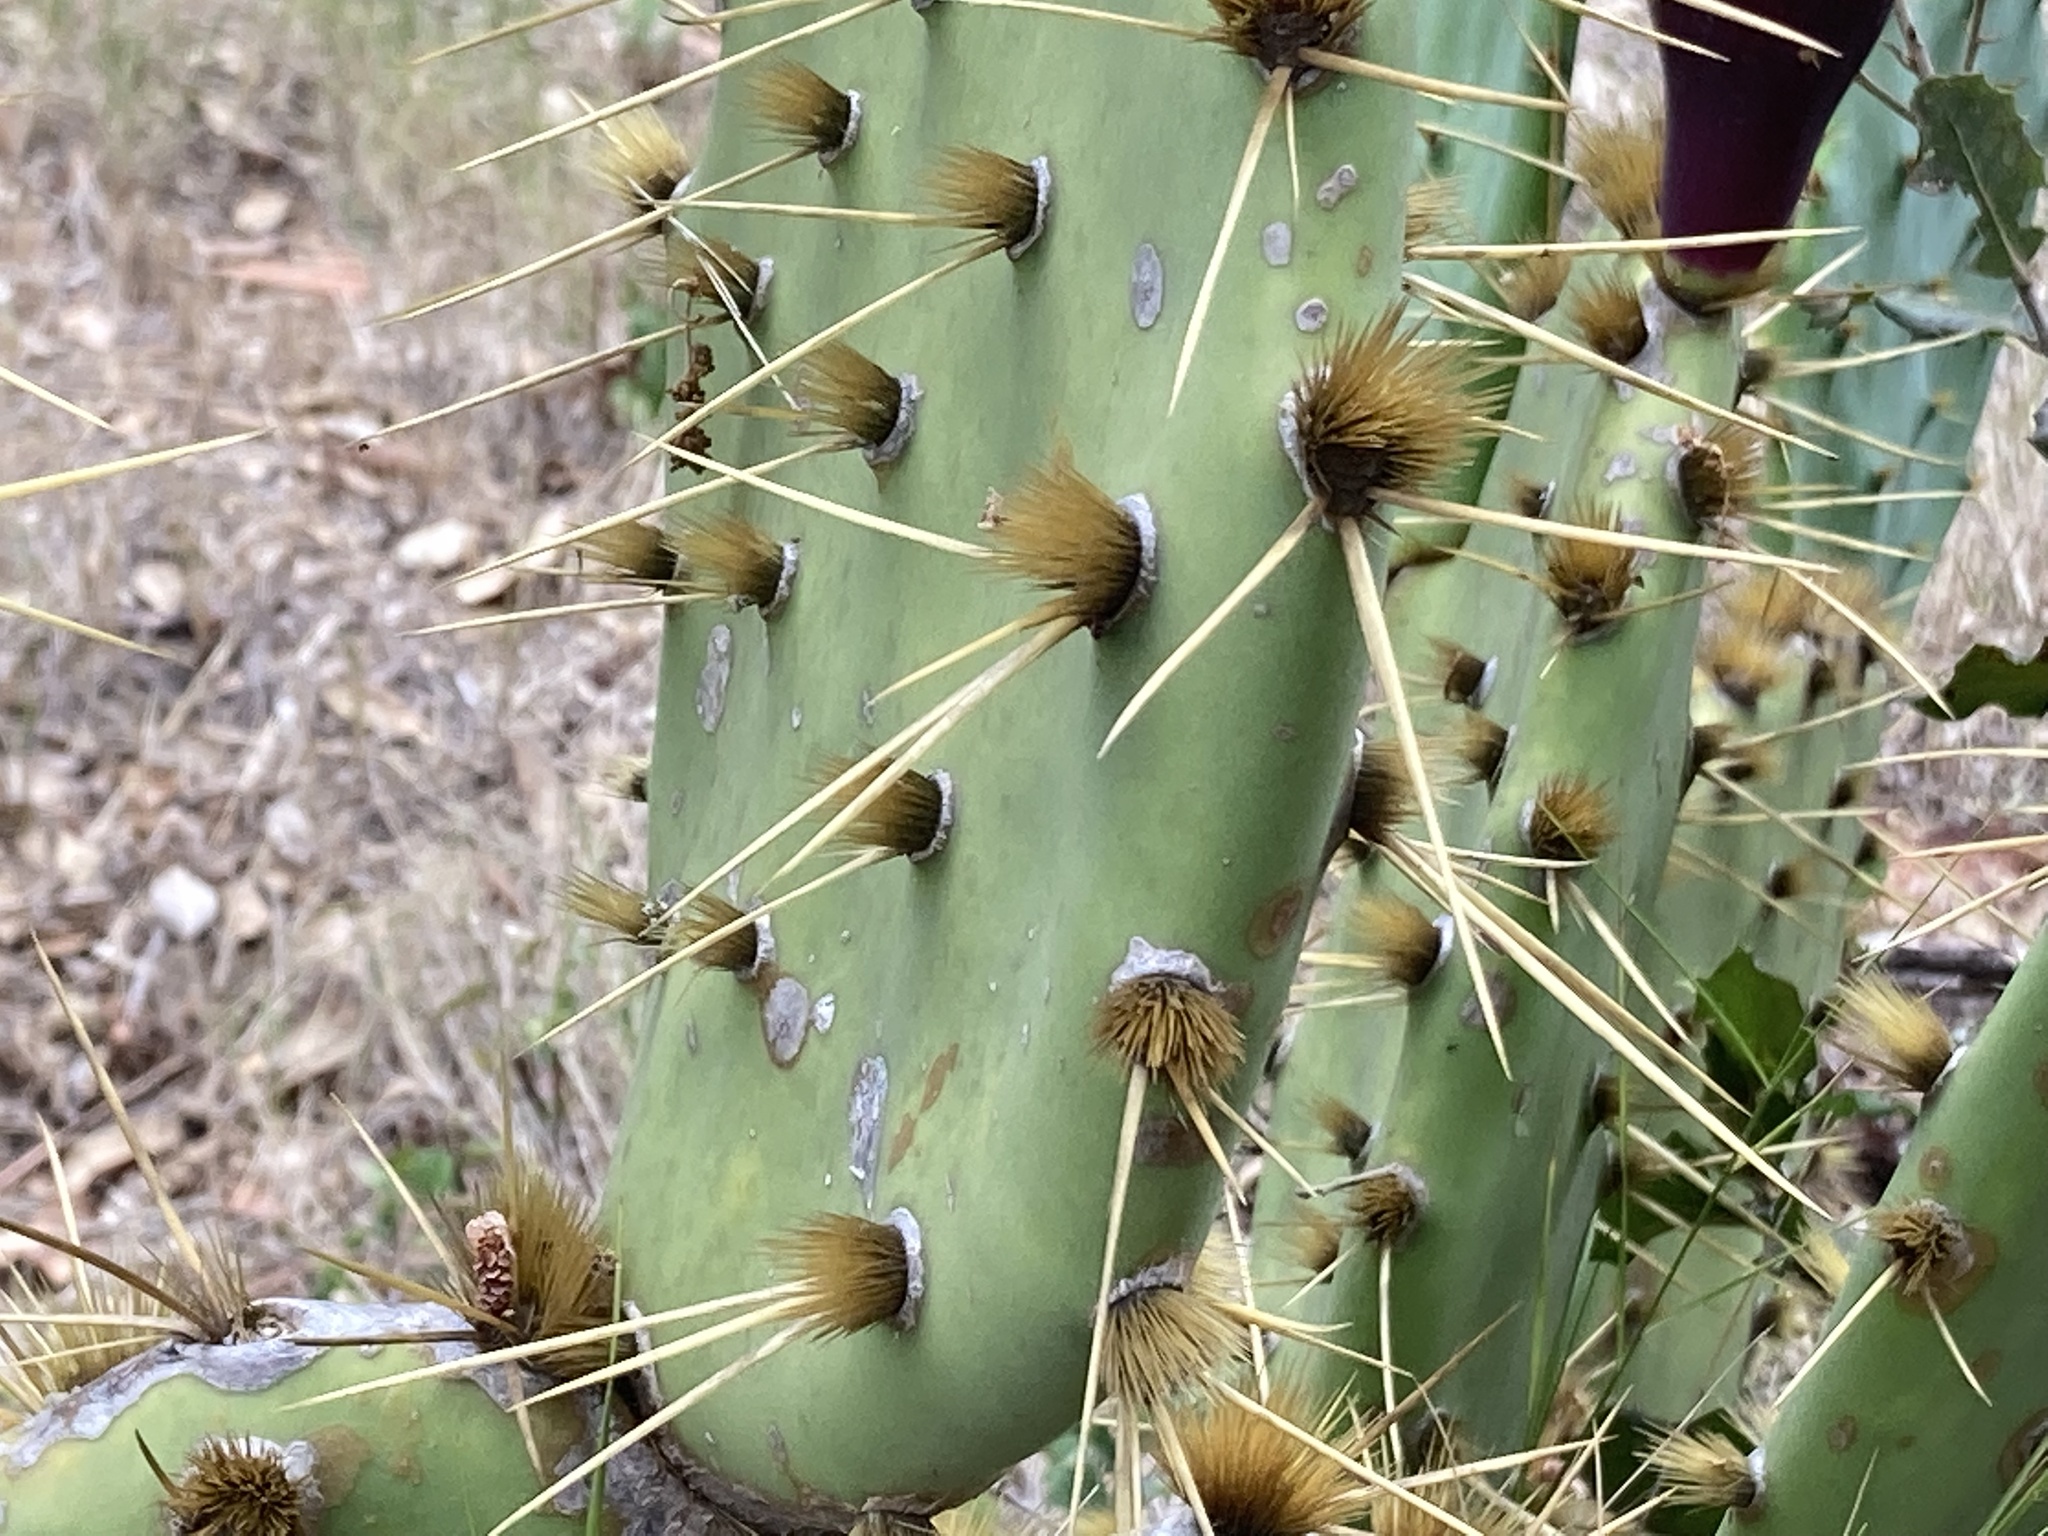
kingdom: Plantae
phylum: Tracheophyta
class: Magnoliopsida
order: Caryophyllales
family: Cactaceae
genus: Opuntia
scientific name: Opuntia engelmannii
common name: Cactus-apple
